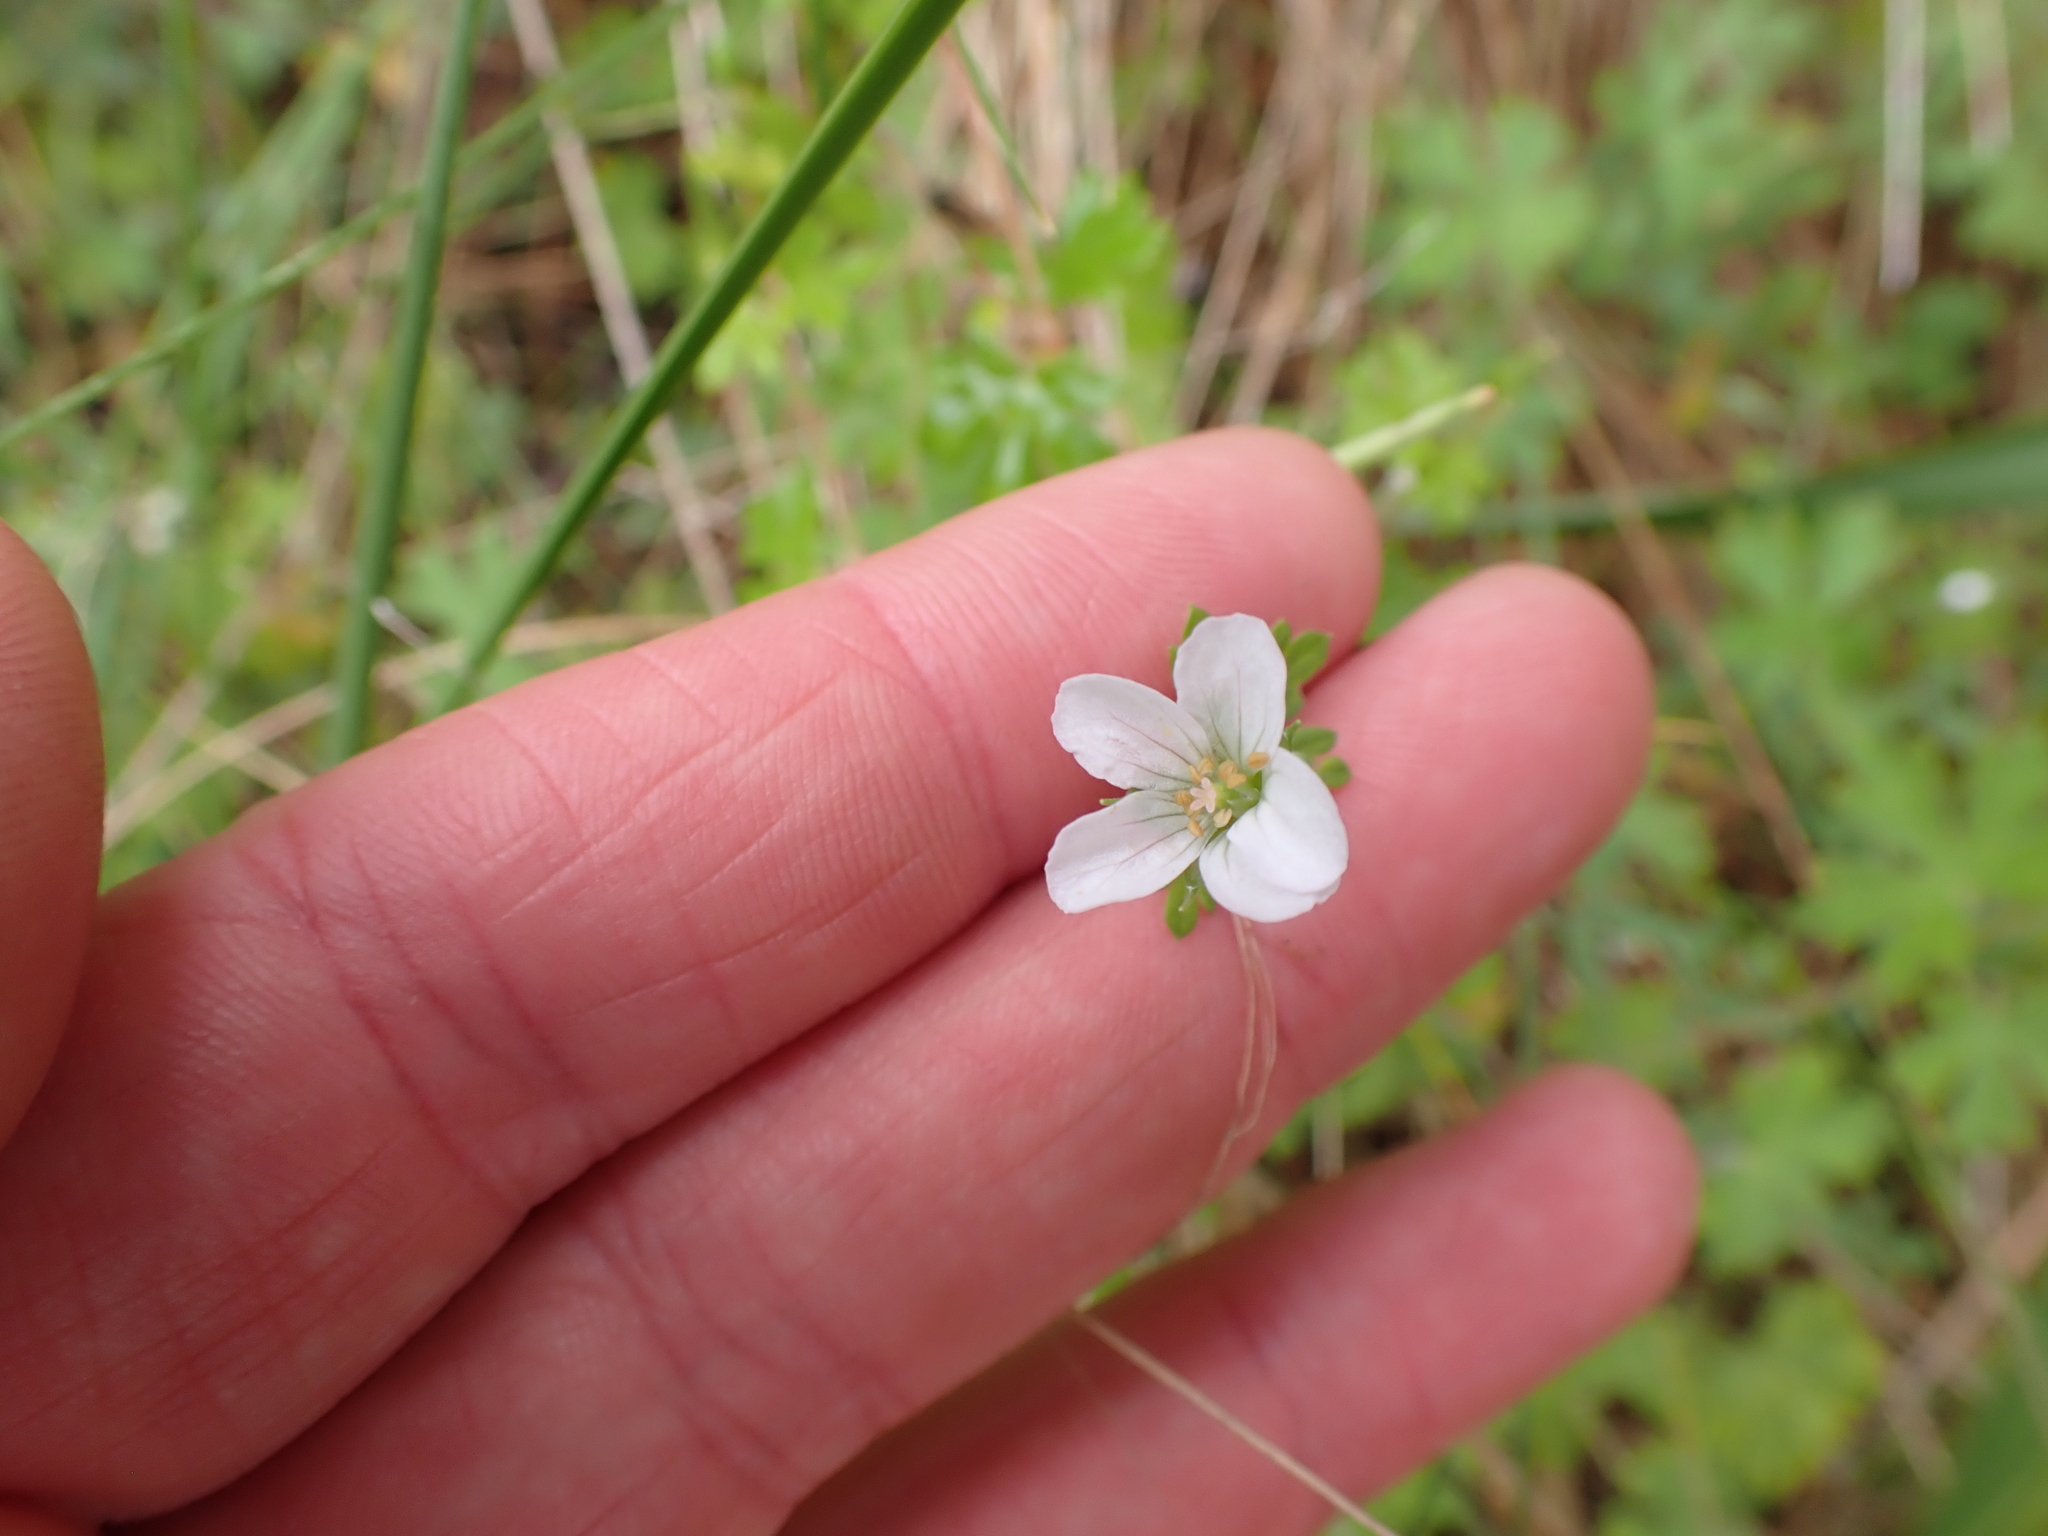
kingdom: Plantae
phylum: Tracheophyta
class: Magnoliopsida
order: Geraniales
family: Geraniaceae
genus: Geranium
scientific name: Geranium potentilloides
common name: Cinquefoil geranium
